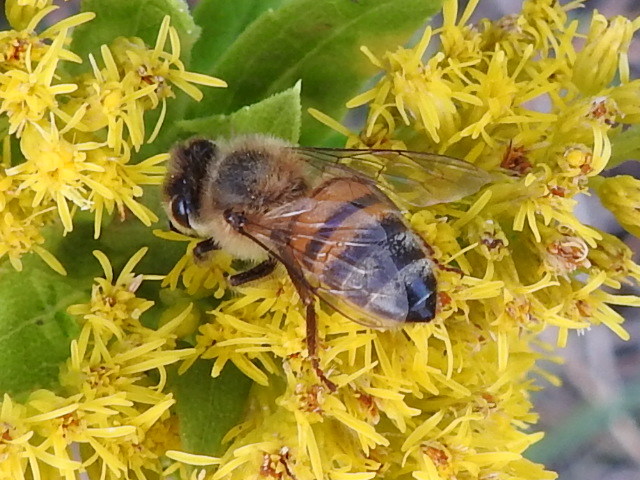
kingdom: Animalia
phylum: Arthropoda
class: Insecta
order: Hymenoptera
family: Apidae
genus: Apis
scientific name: Apis mellifera
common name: Honey bee
